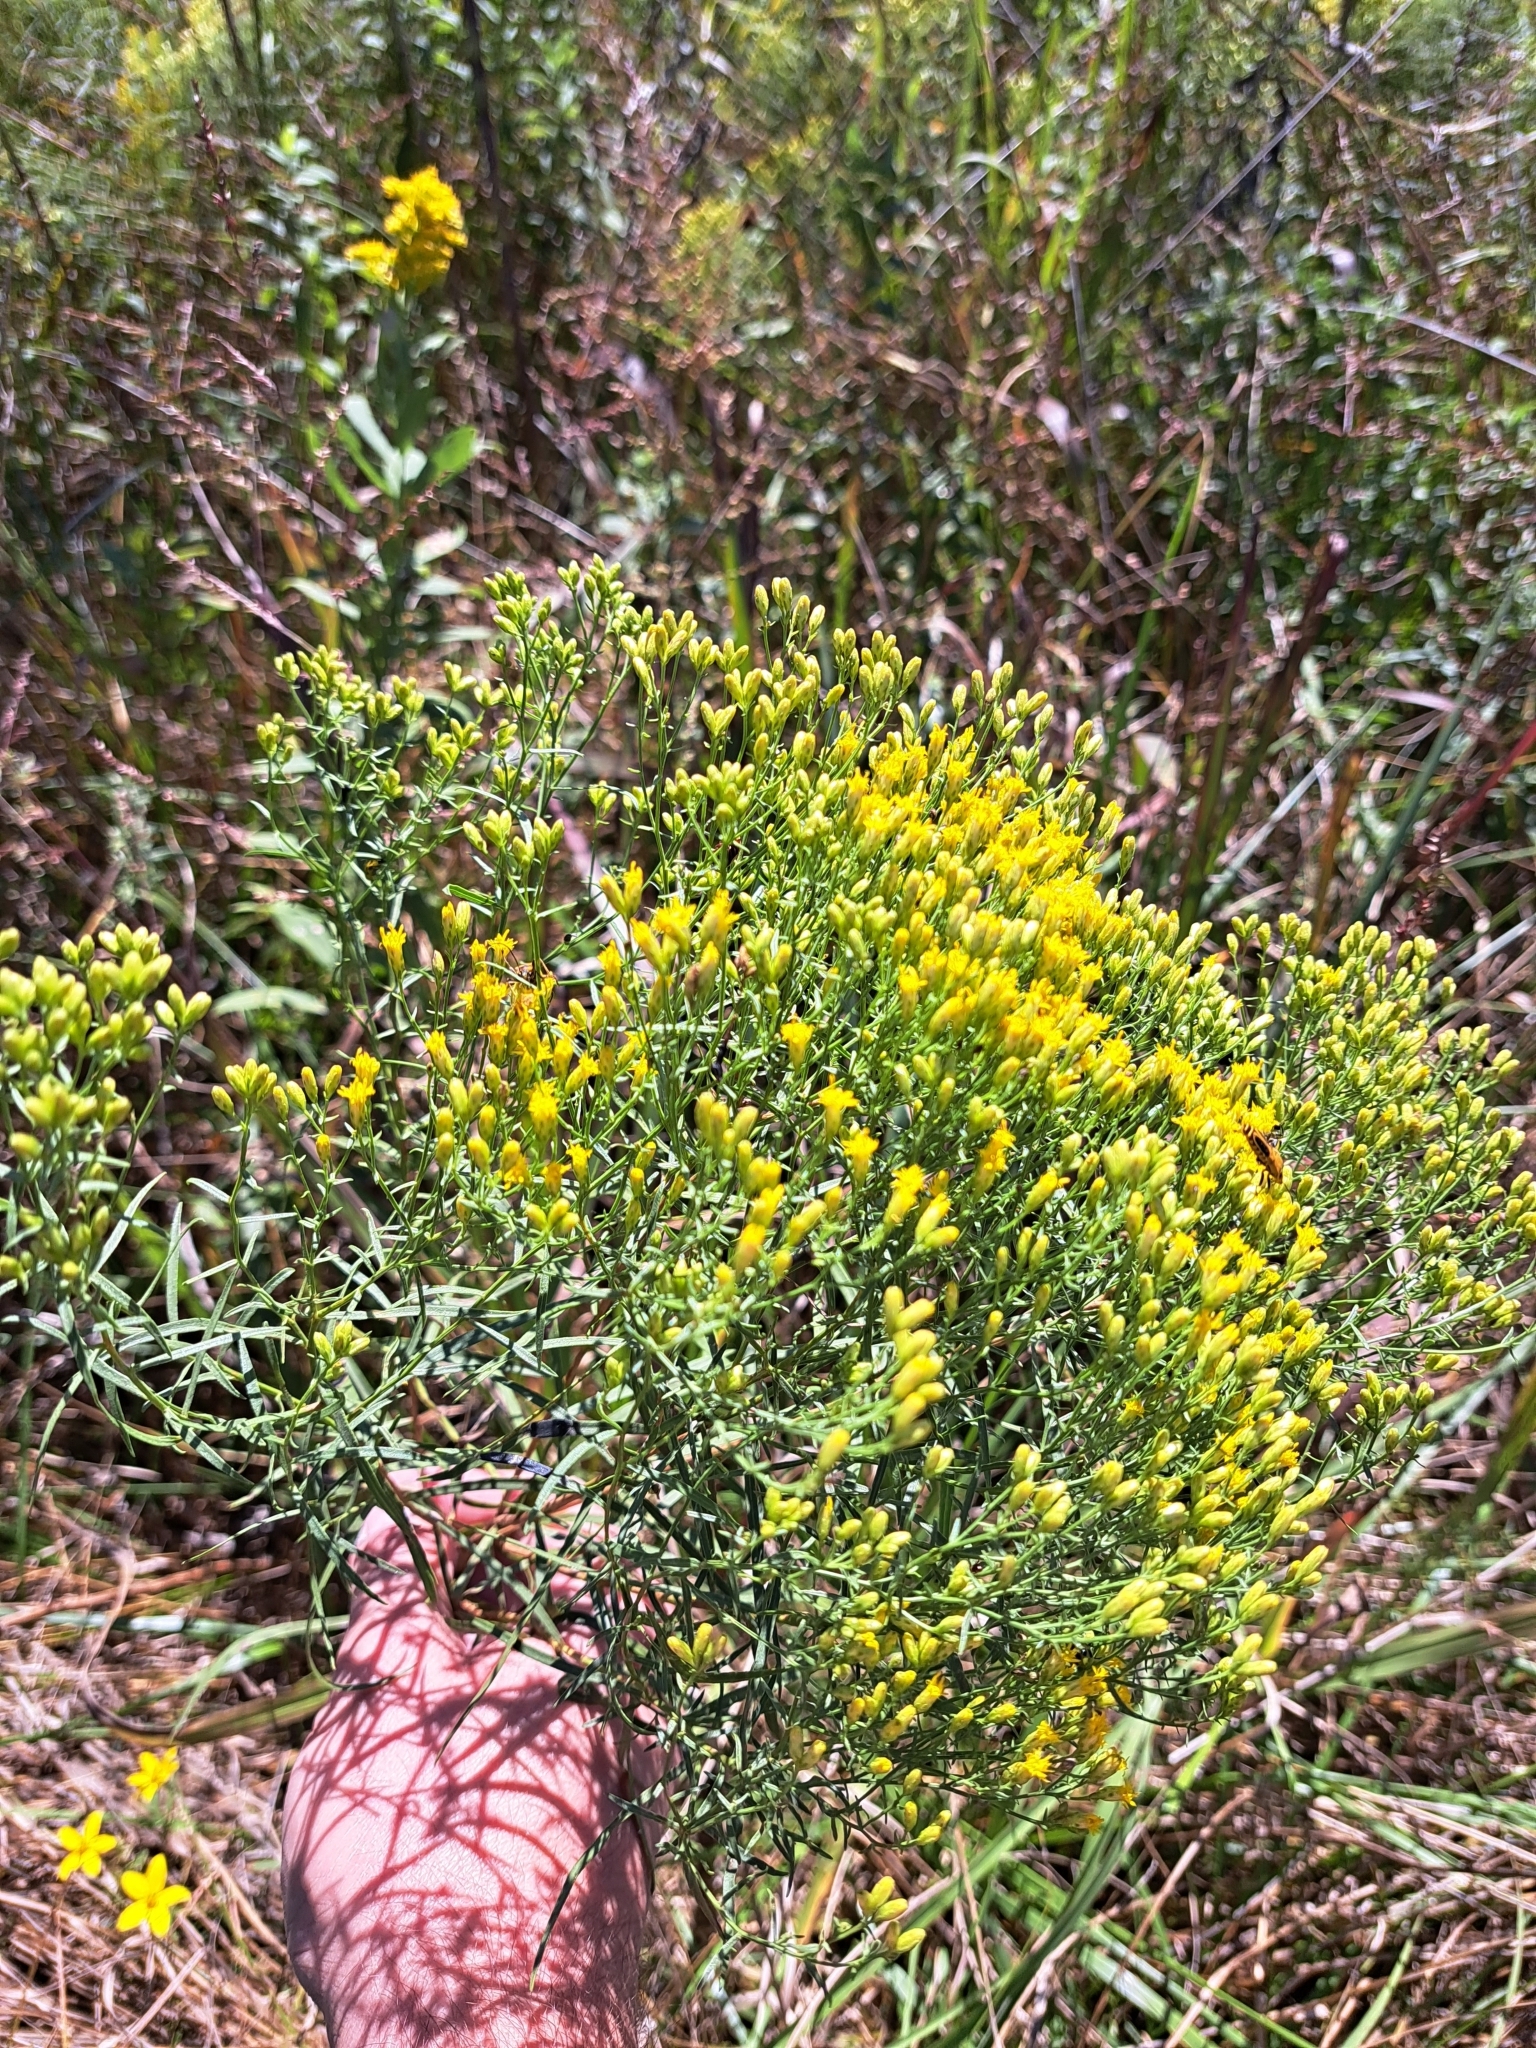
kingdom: Plantae
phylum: Tracheophyta
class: Magnoliopsida
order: Asterales
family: Asteraceae
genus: Euthamia
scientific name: Euthamia gymnospermoides
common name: Great plains goldentop
